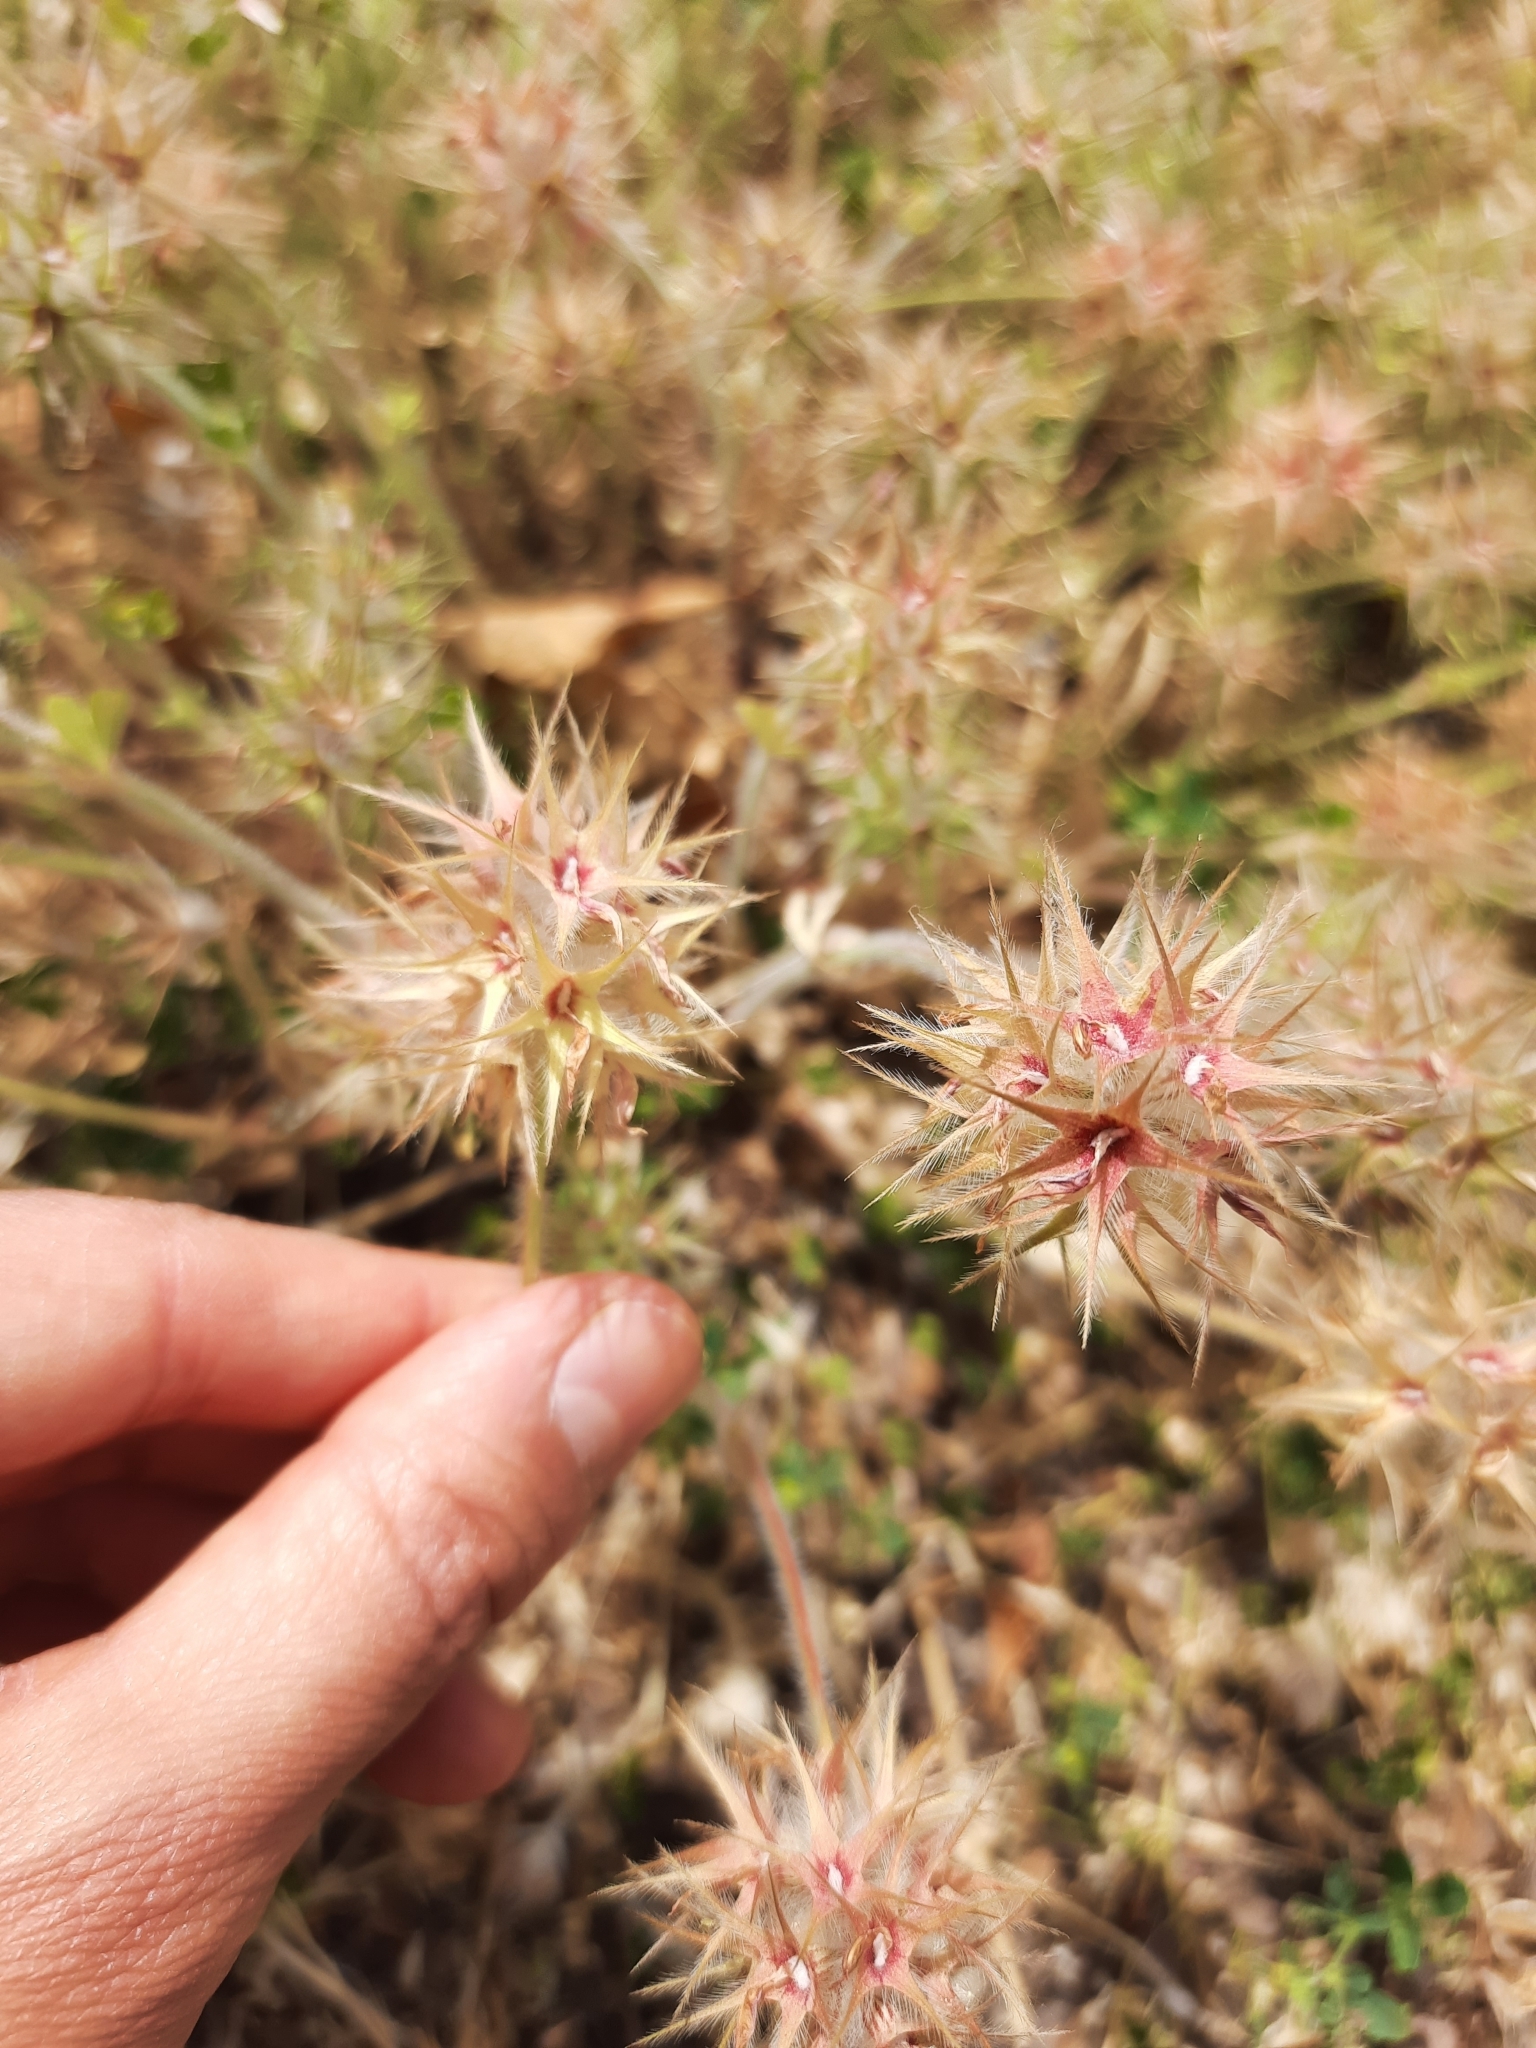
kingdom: Plantae
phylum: Tracheophyta
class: Magnoliopsida
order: Fabales
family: Fabaceae
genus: Trifolium
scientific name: Trifolium stellatum
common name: Starry clover
